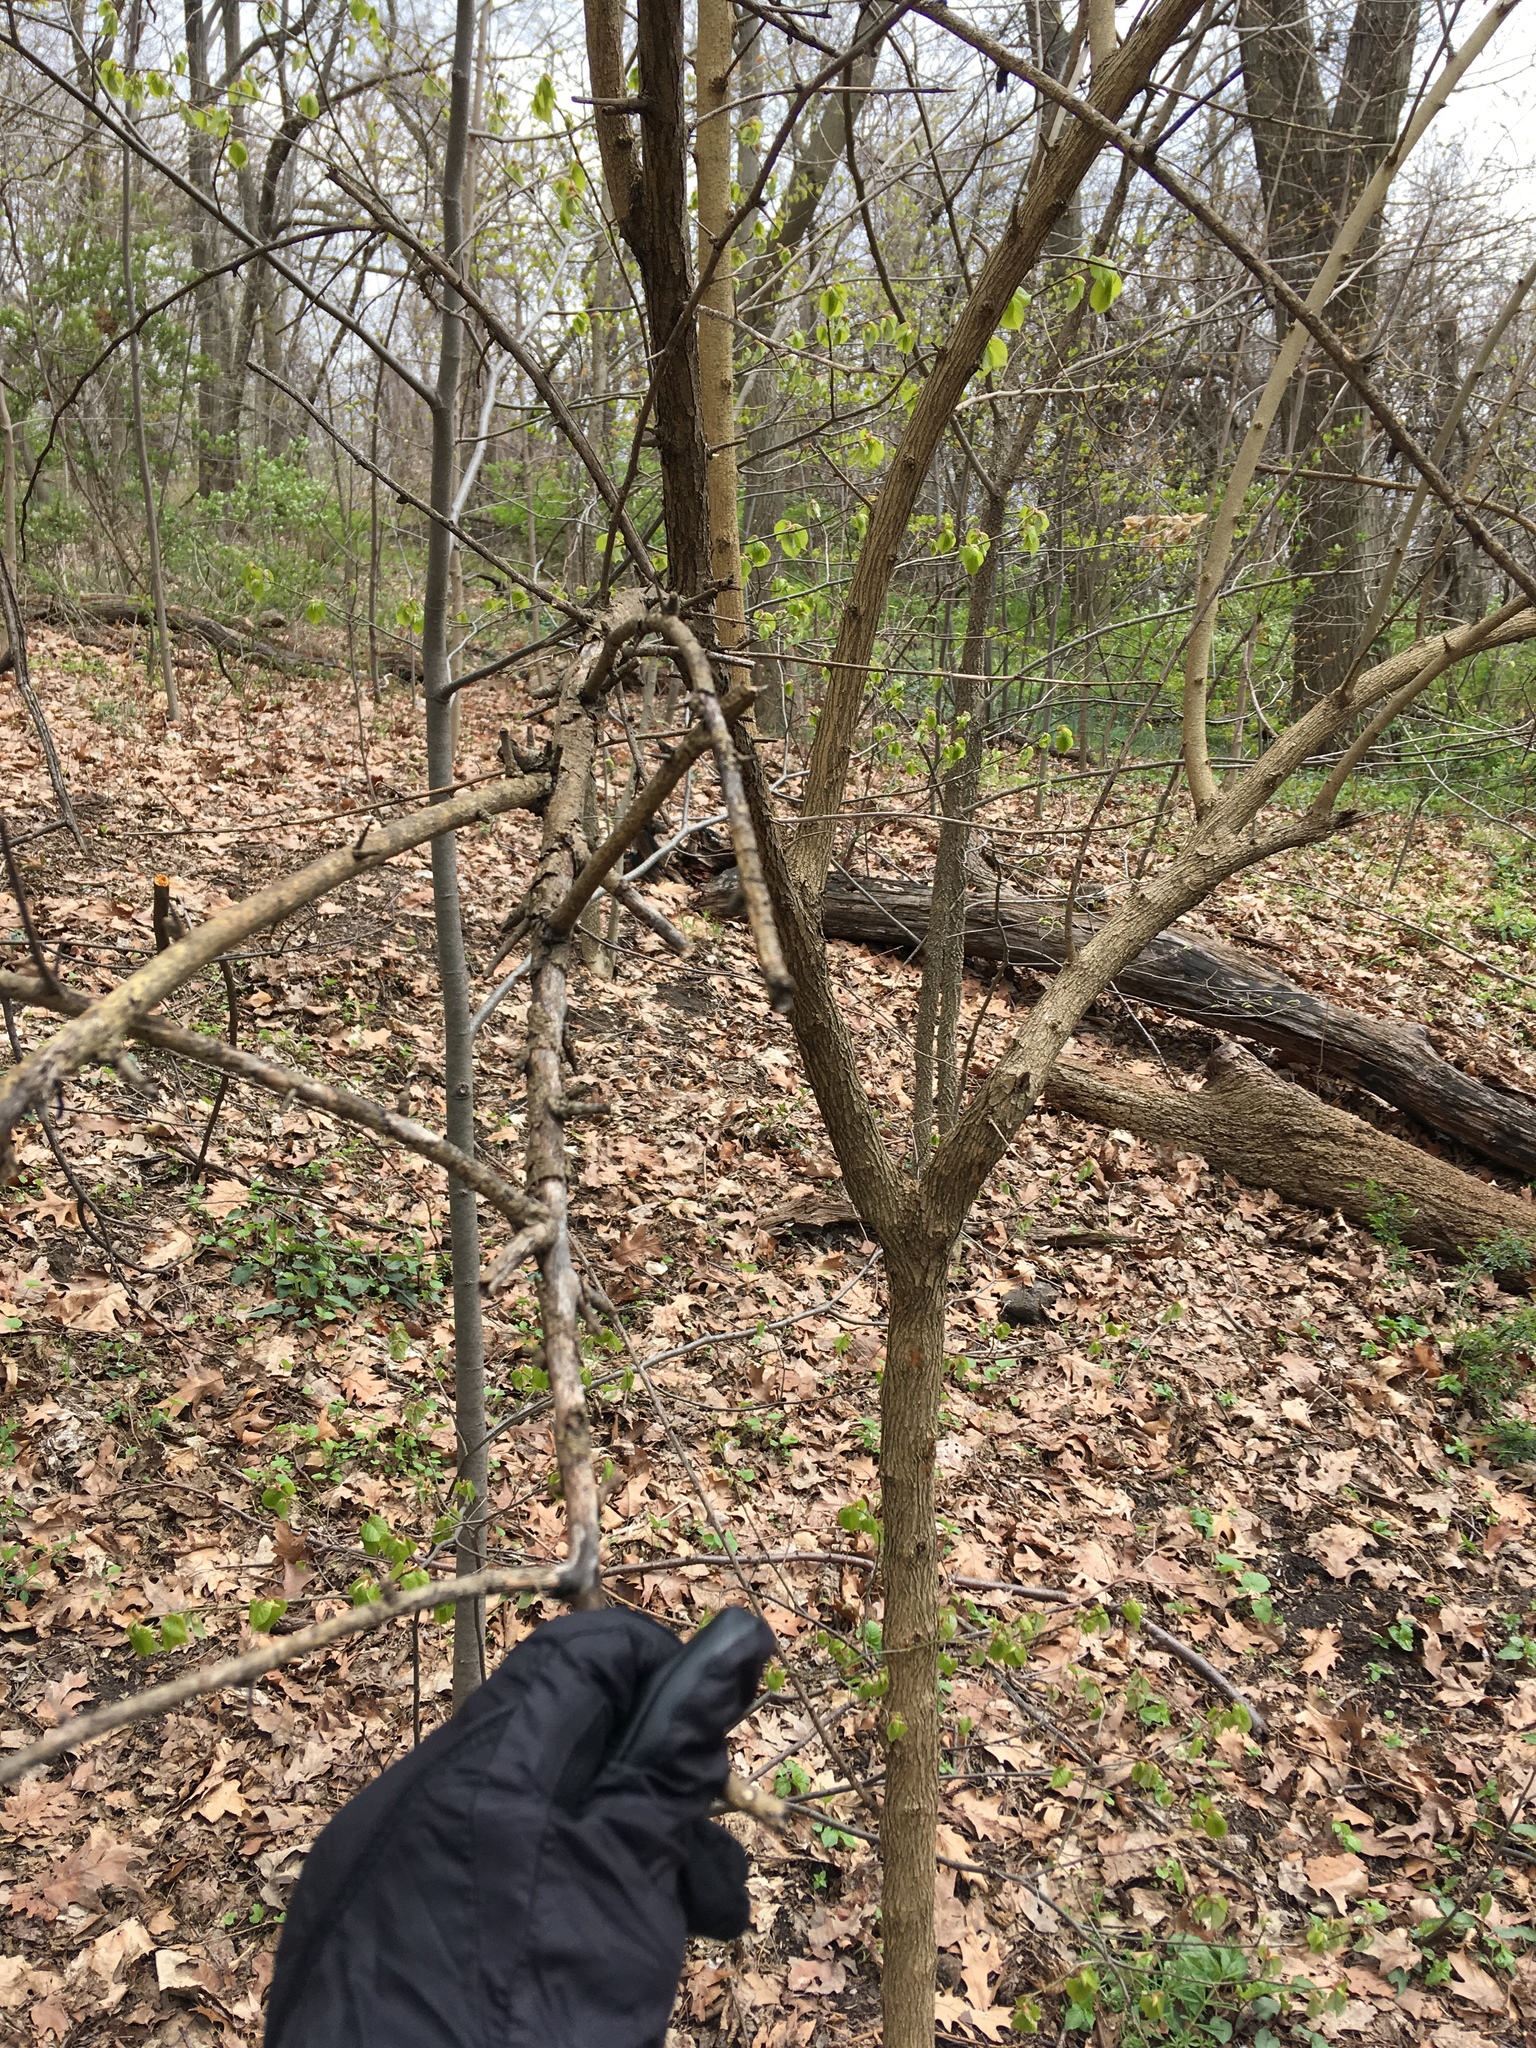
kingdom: Plantae
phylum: Tracheophyta
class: Magnoliopsida
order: Rosales
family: Moraceae
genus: Maclura
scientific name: Maclura pomifera
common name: Osage-orange
